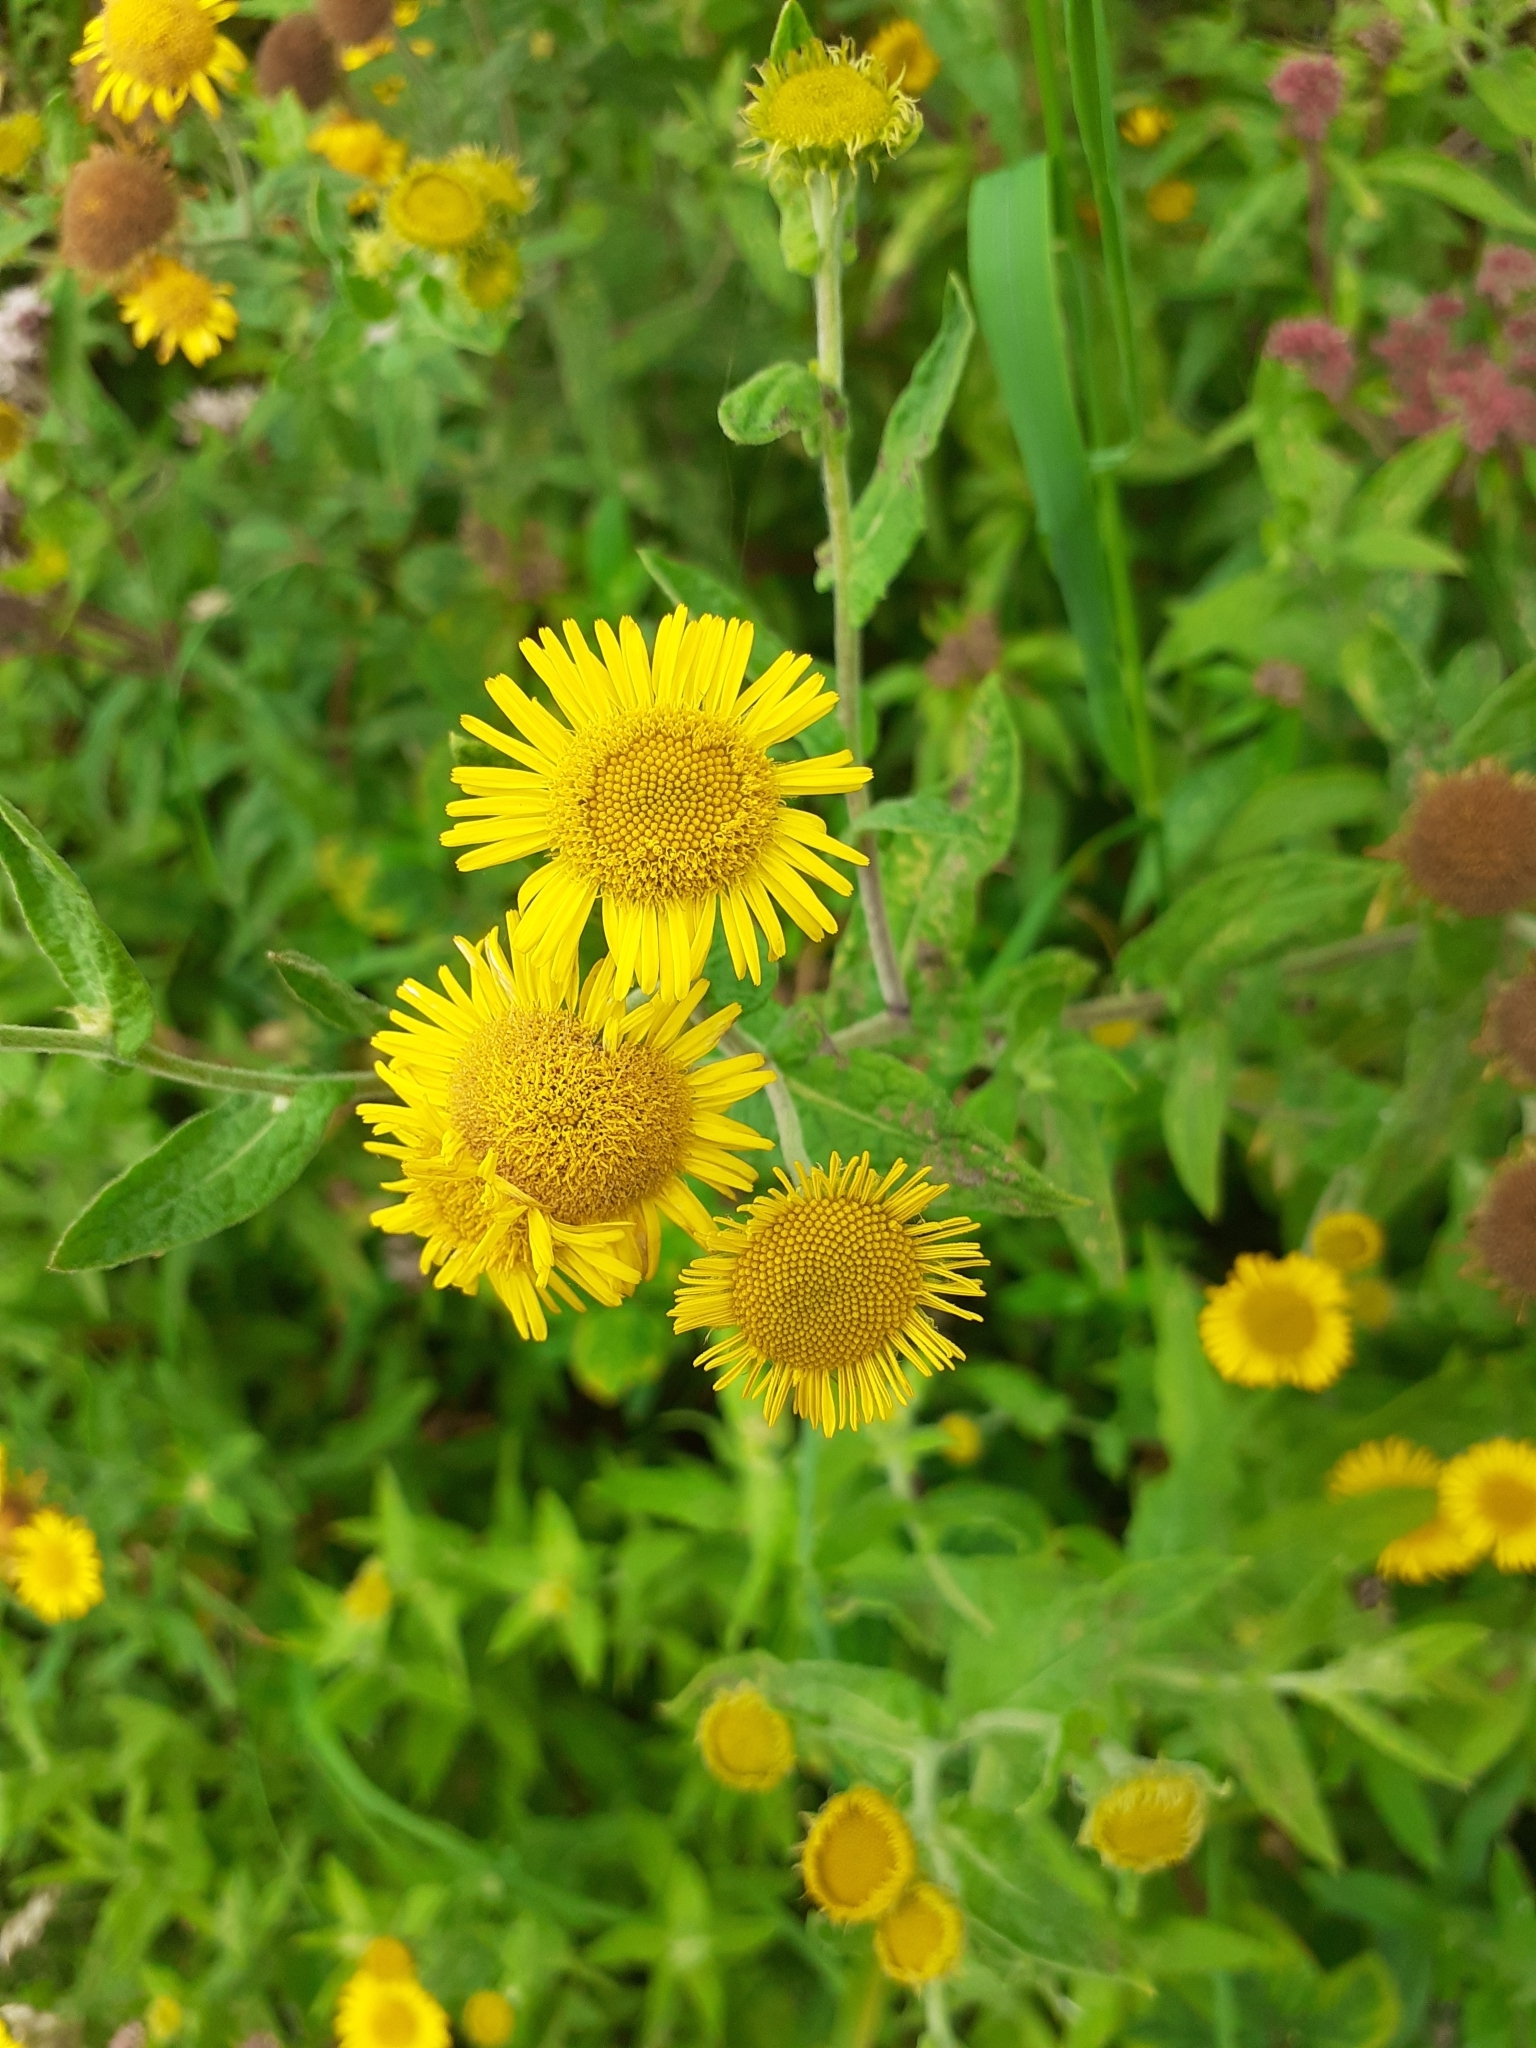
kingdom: Plantae
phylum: Tracheophyta
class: Magnoliopsida
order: Asterales
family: Asteraceae
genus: Pulicaria
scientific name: Pulicaria dysenterica
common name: Common fleabane
